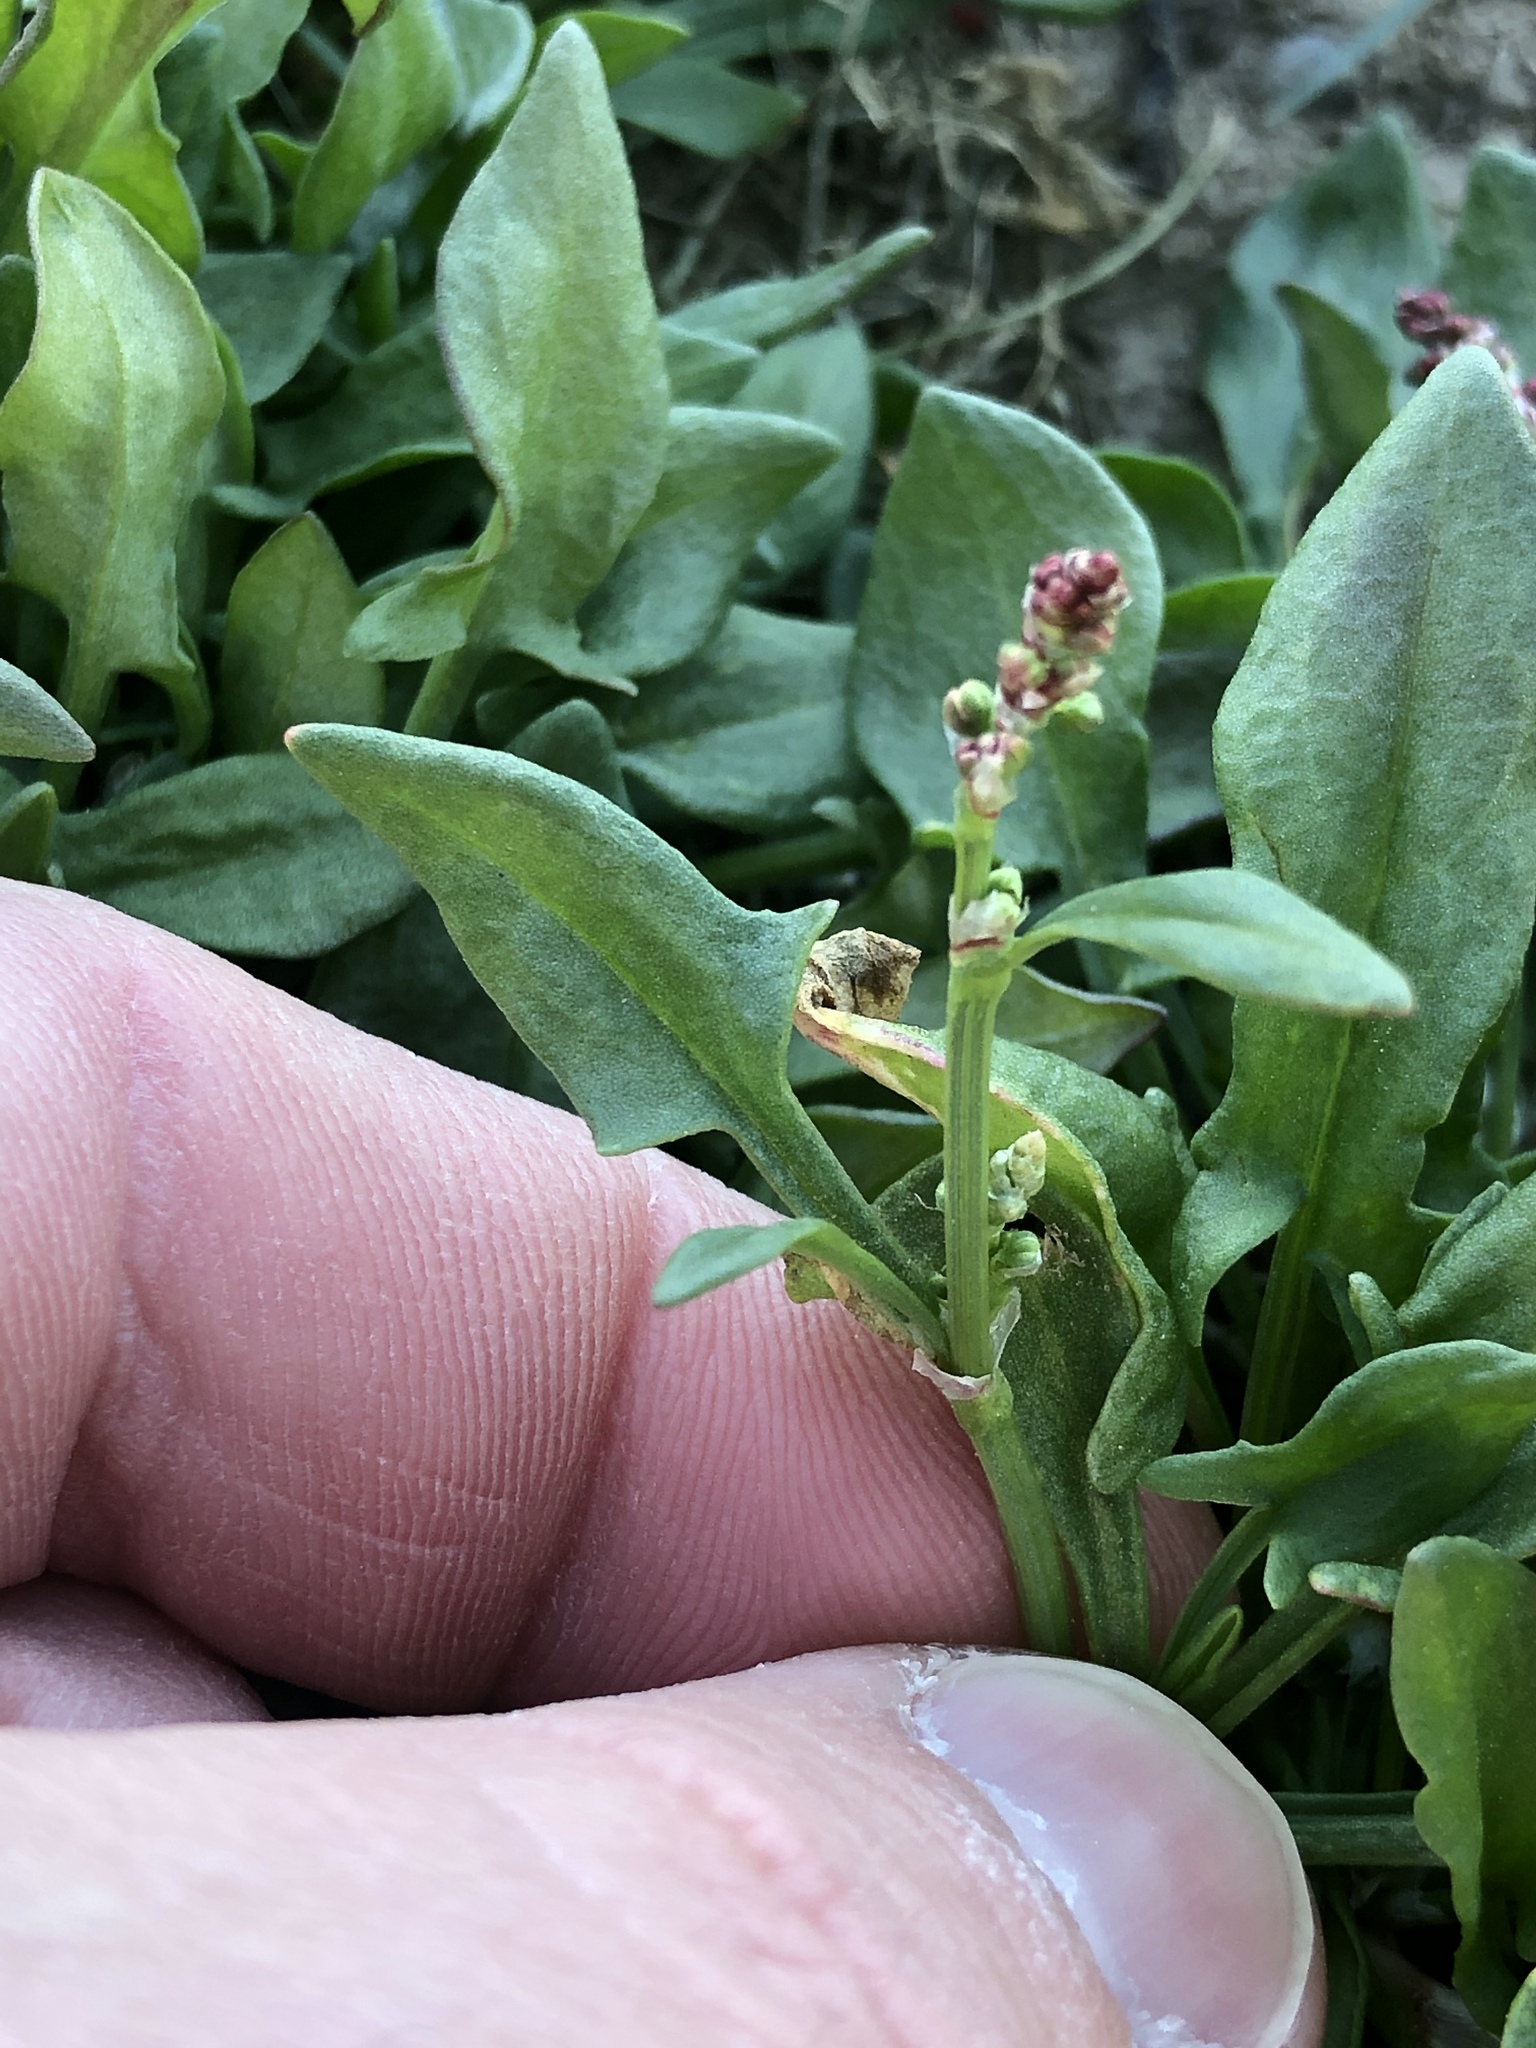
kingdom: Plantae
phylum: Tracheophyta
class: Magnoliopsida
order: Caryophyllales
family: Polygonaceae
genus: Rumex
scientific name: Rumex acetosella
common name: Common sheep sorrel
